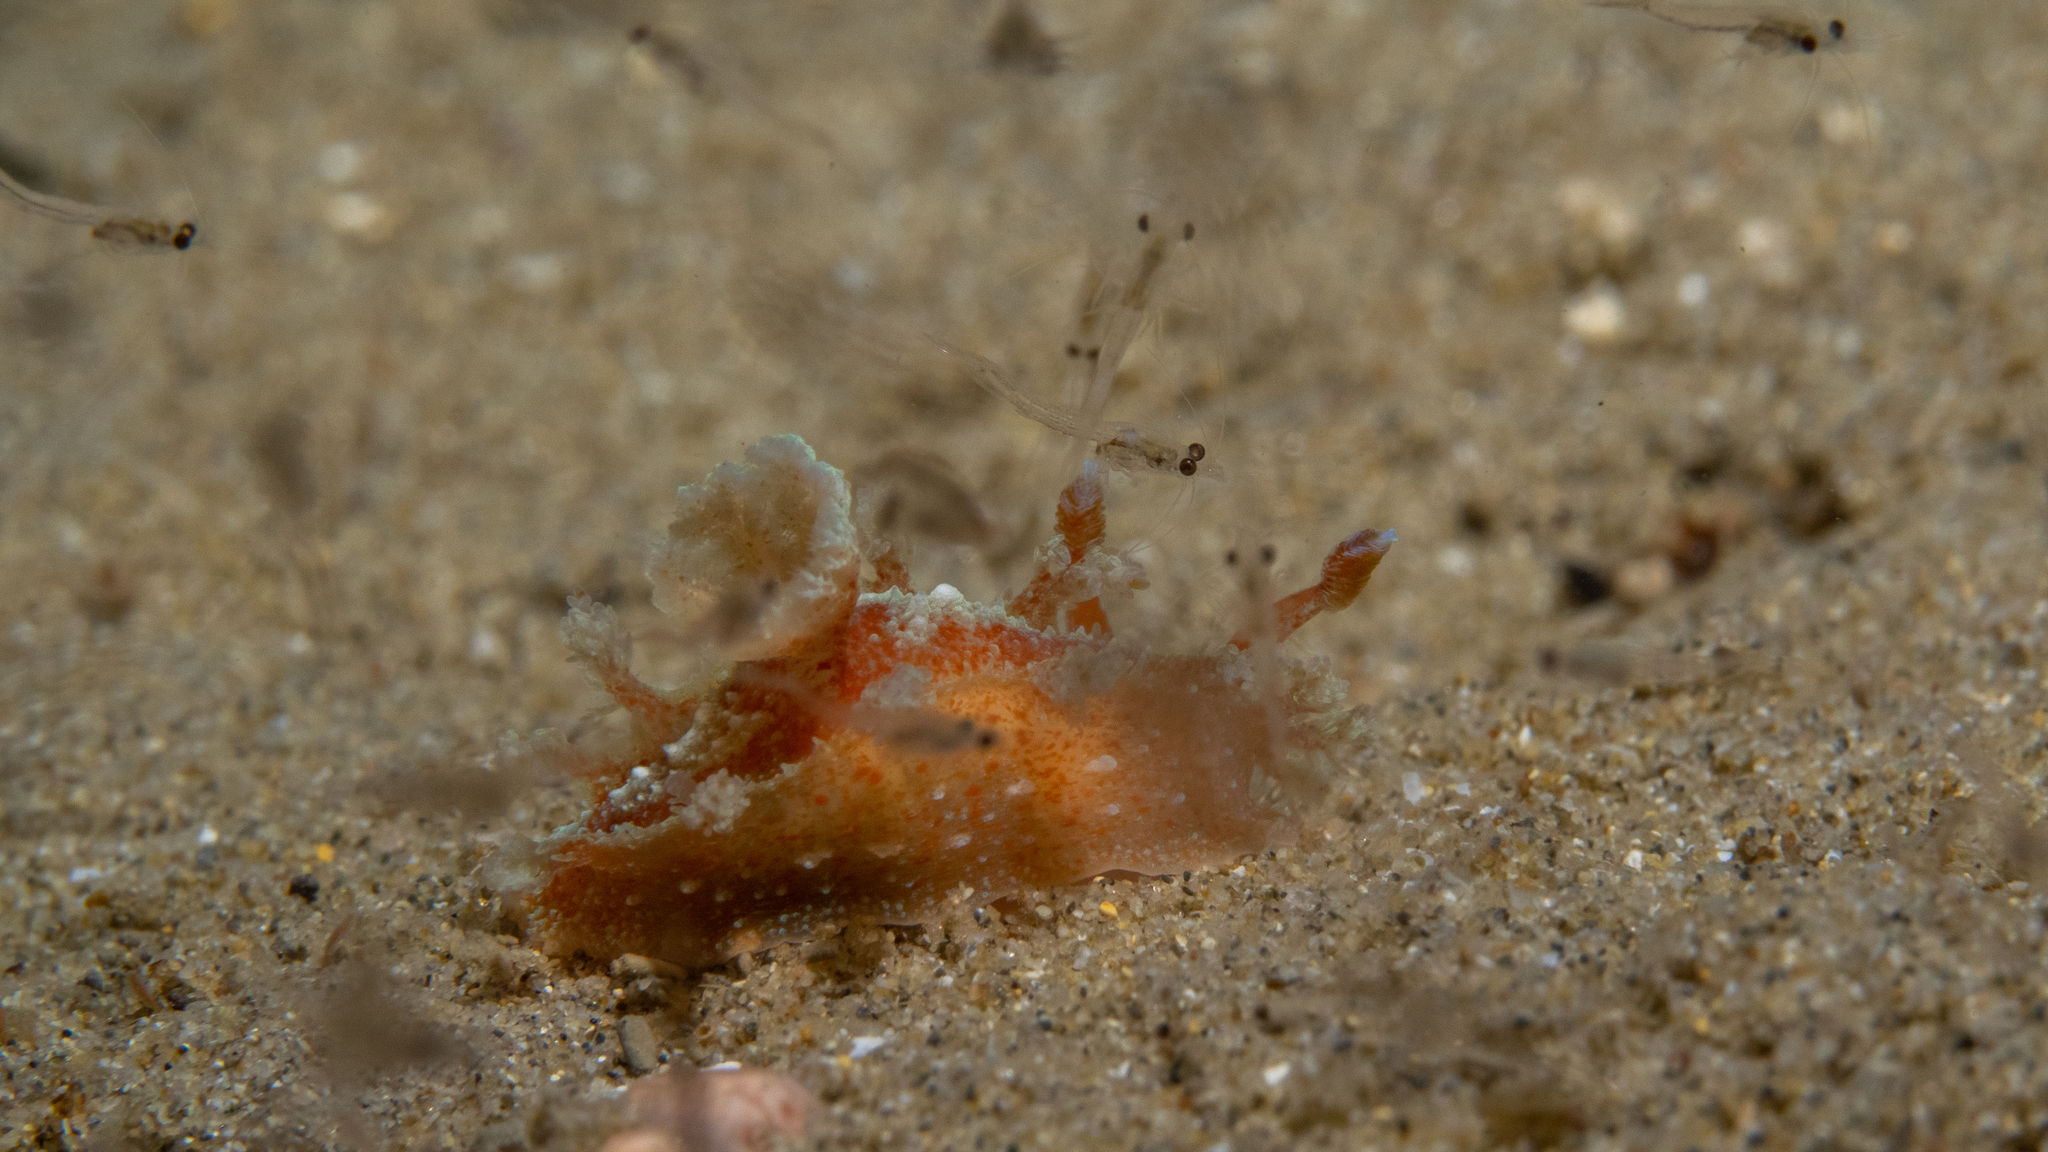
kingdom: Animalia
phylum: Mollusca
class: Gastropoda
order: Nudibranchia
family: Polyceridae
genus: Kaloplocamus
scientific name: Kaloplocamus ramosus
